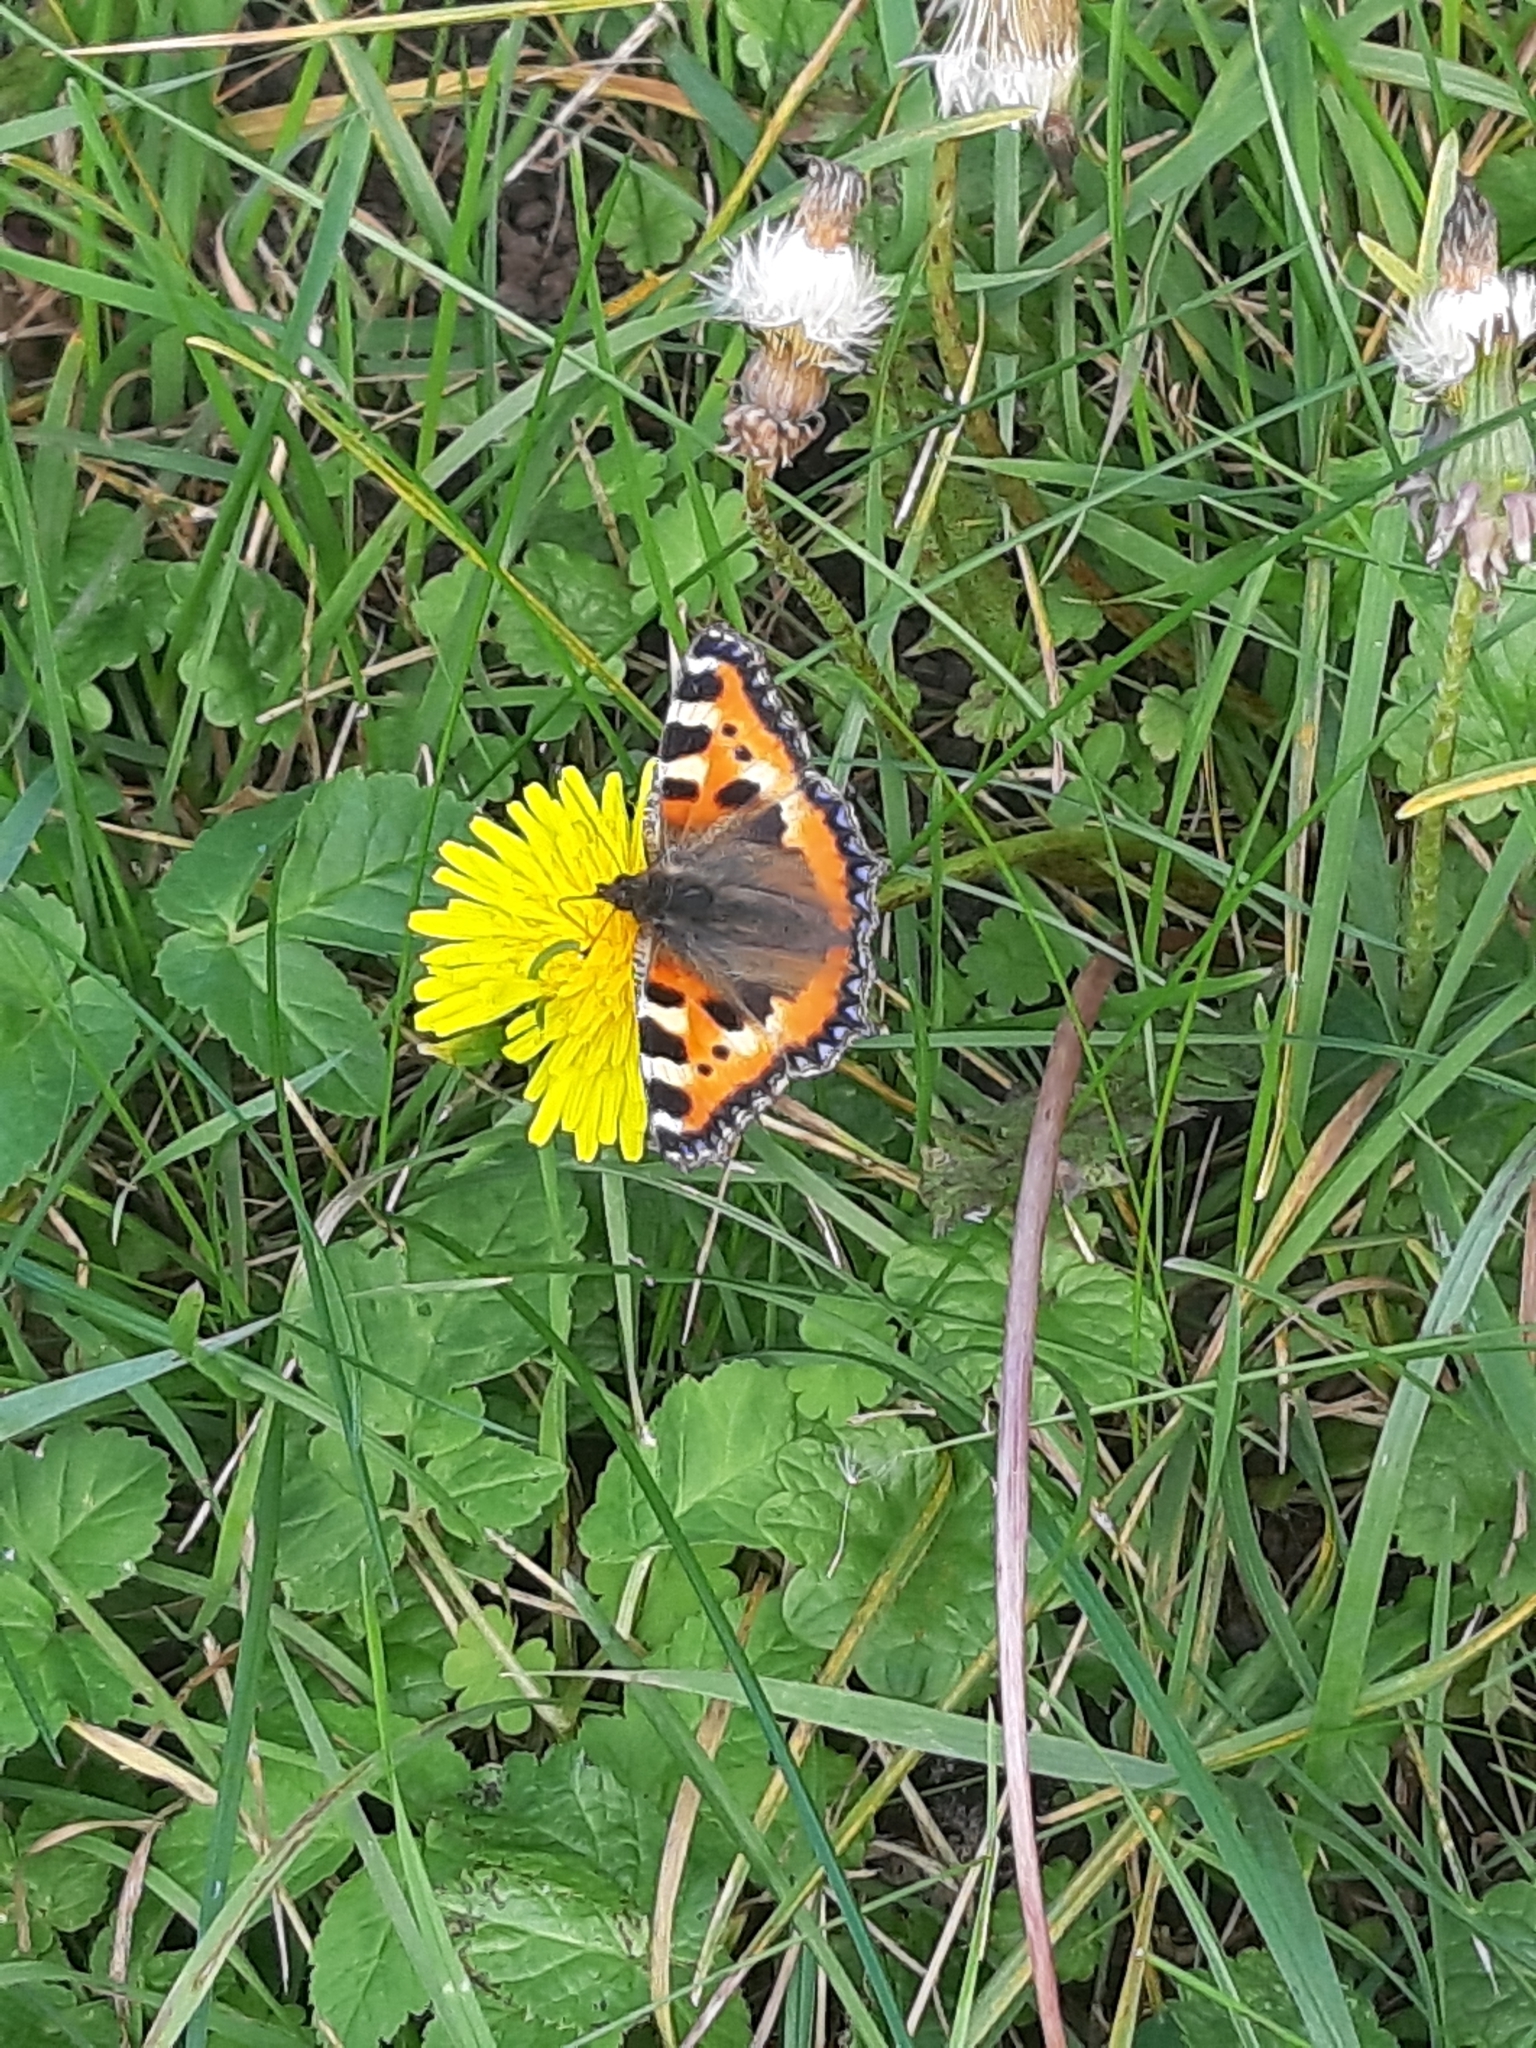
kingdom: Animalia
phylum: Arthropoda
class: Insecta
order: Lepidoptera
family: Nymphalidae
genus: Aglais
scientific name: Aglais urticae
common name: Small tortoiseshell
